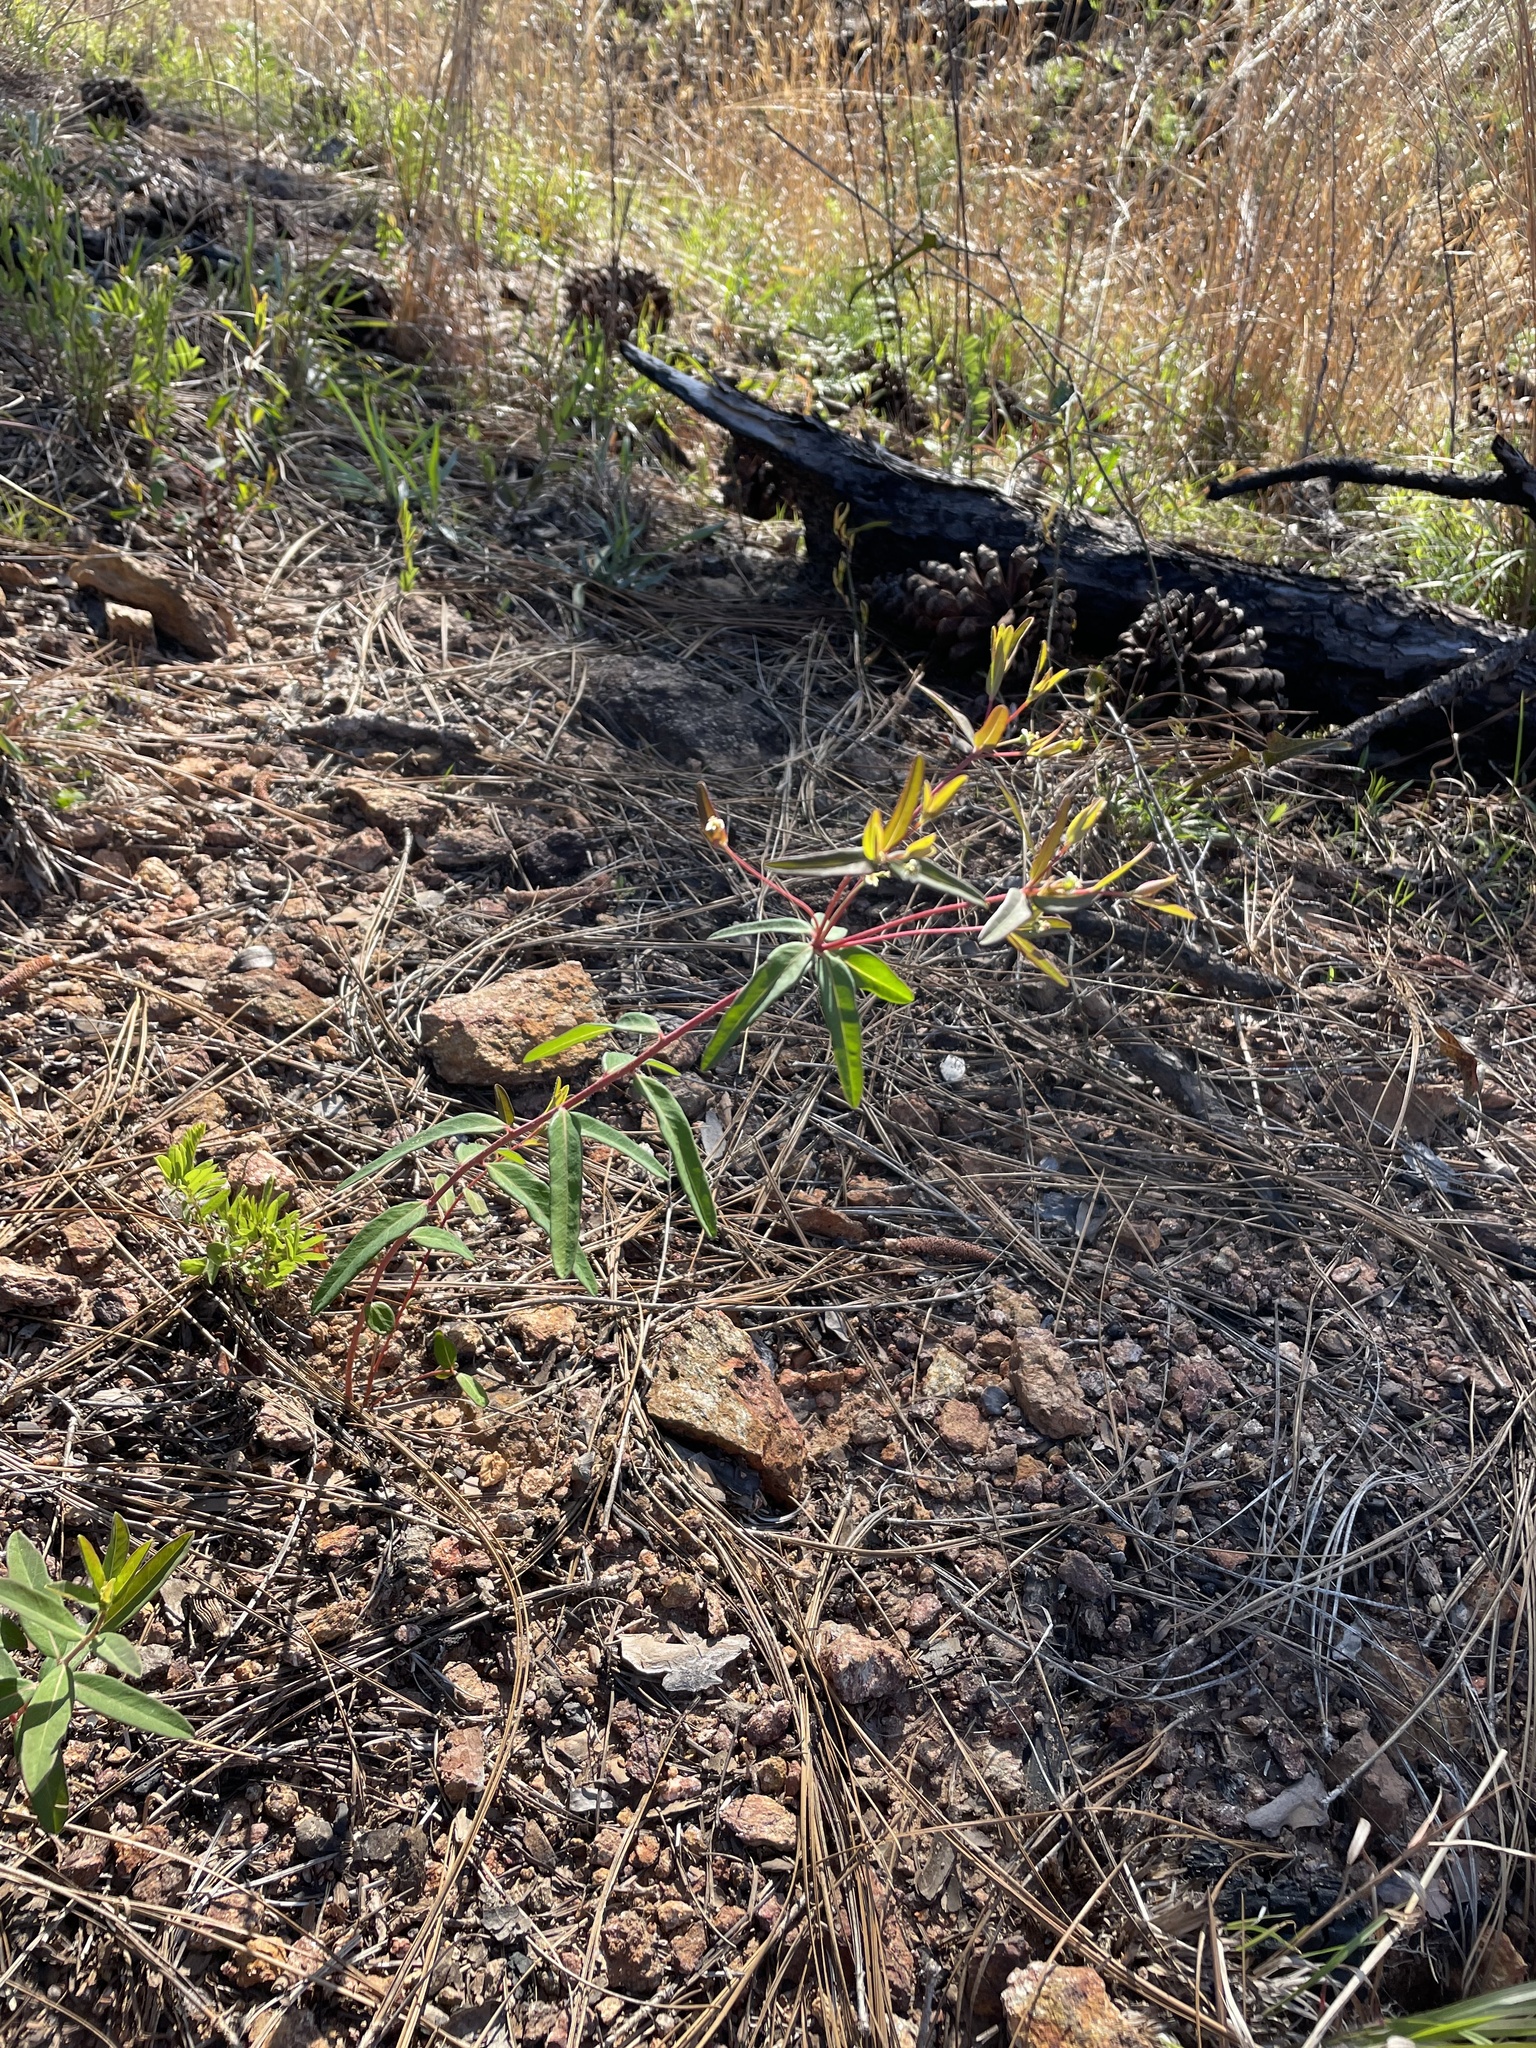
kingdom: Plantae
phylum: Tracheophyta
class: Magnoliopsida
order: Malpighiales
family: Euphorbiaceae
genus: Euphorbia
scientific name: Euphorbia pubentissima
